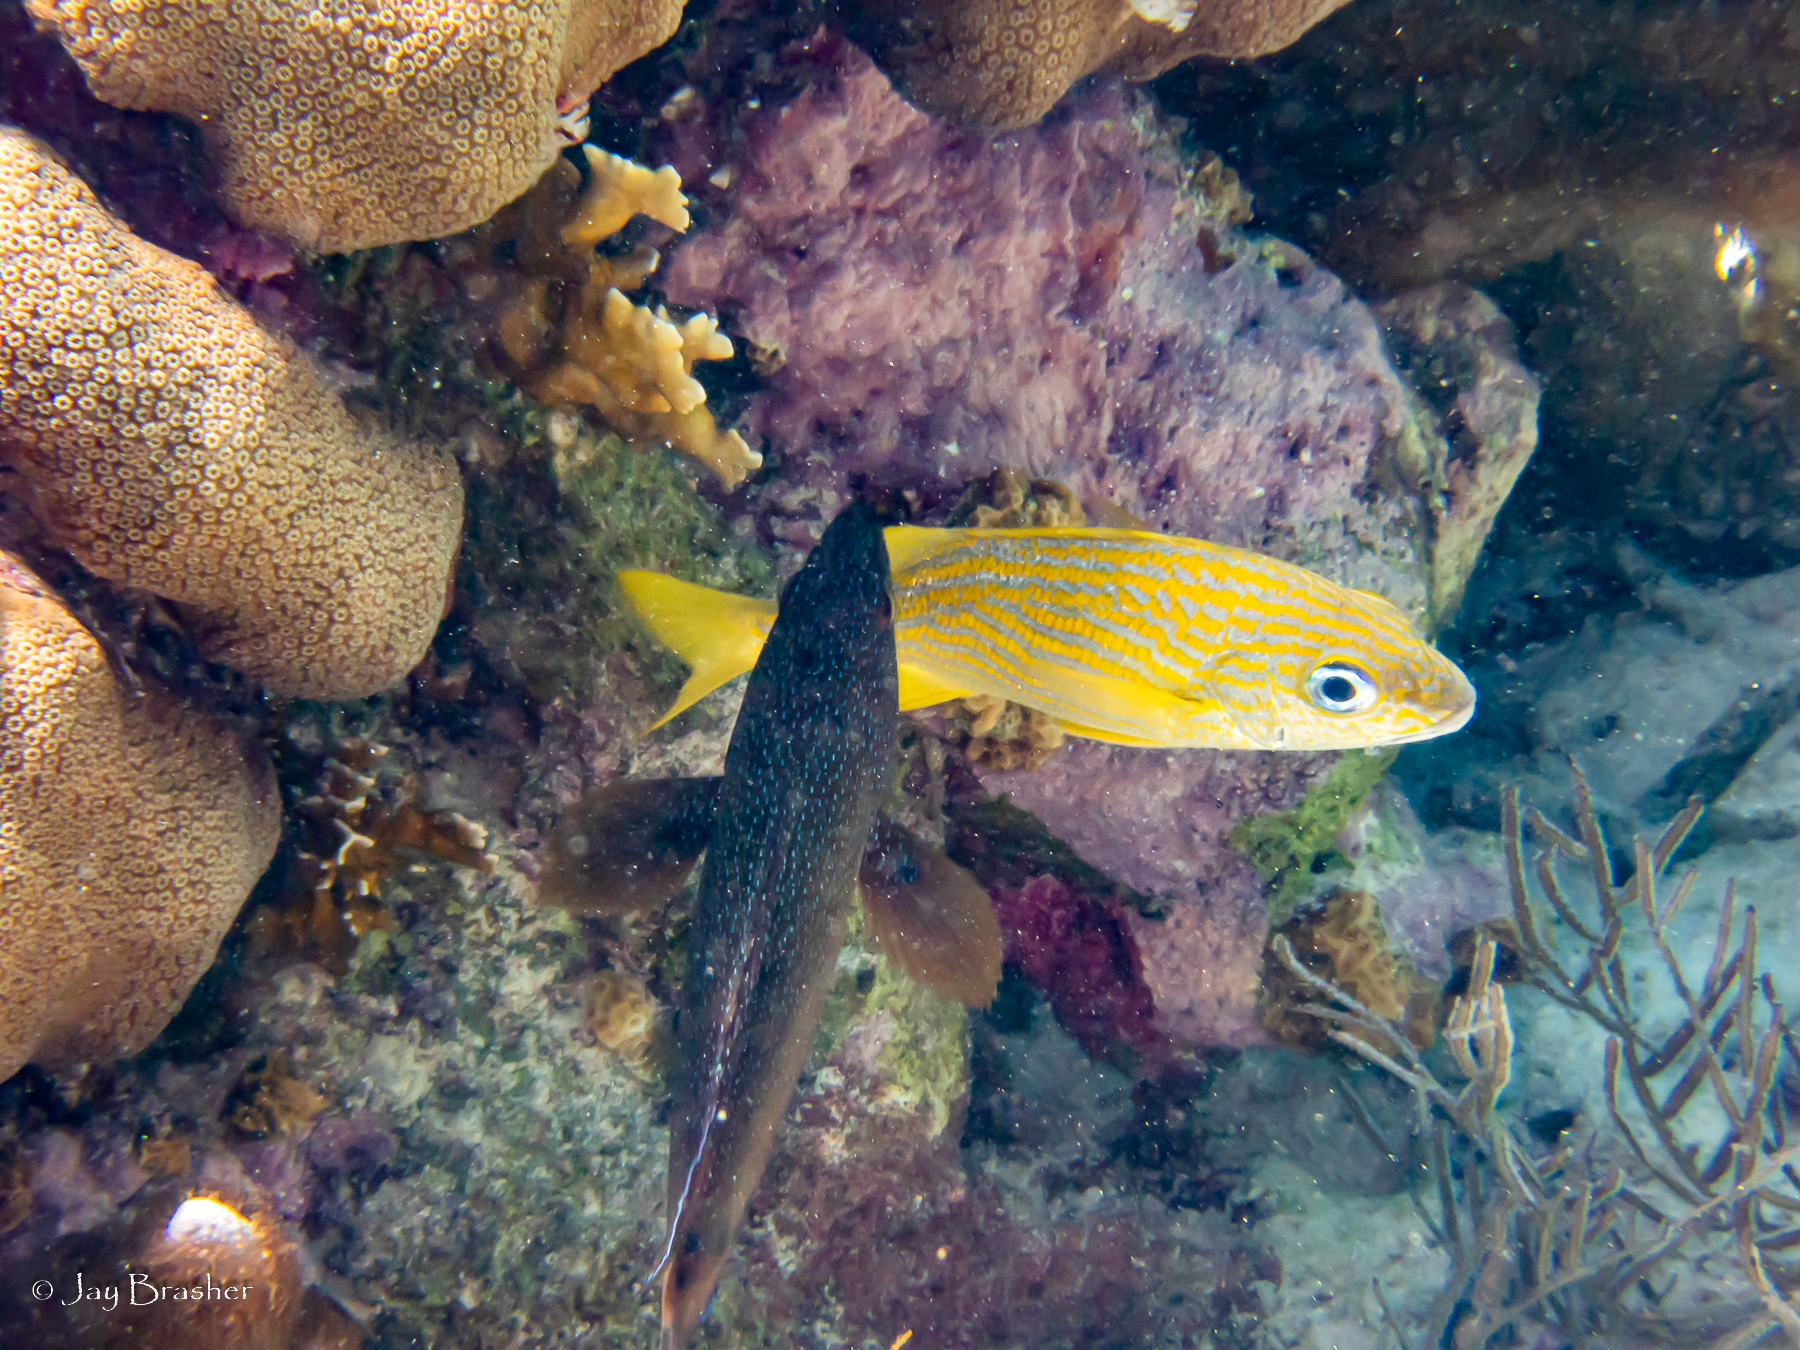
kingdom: Animalia
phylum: Chordata
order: Perciformes
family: Serranidae
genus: Cephalopholis
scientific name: Cephalopholis fulva
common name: Butterfish
